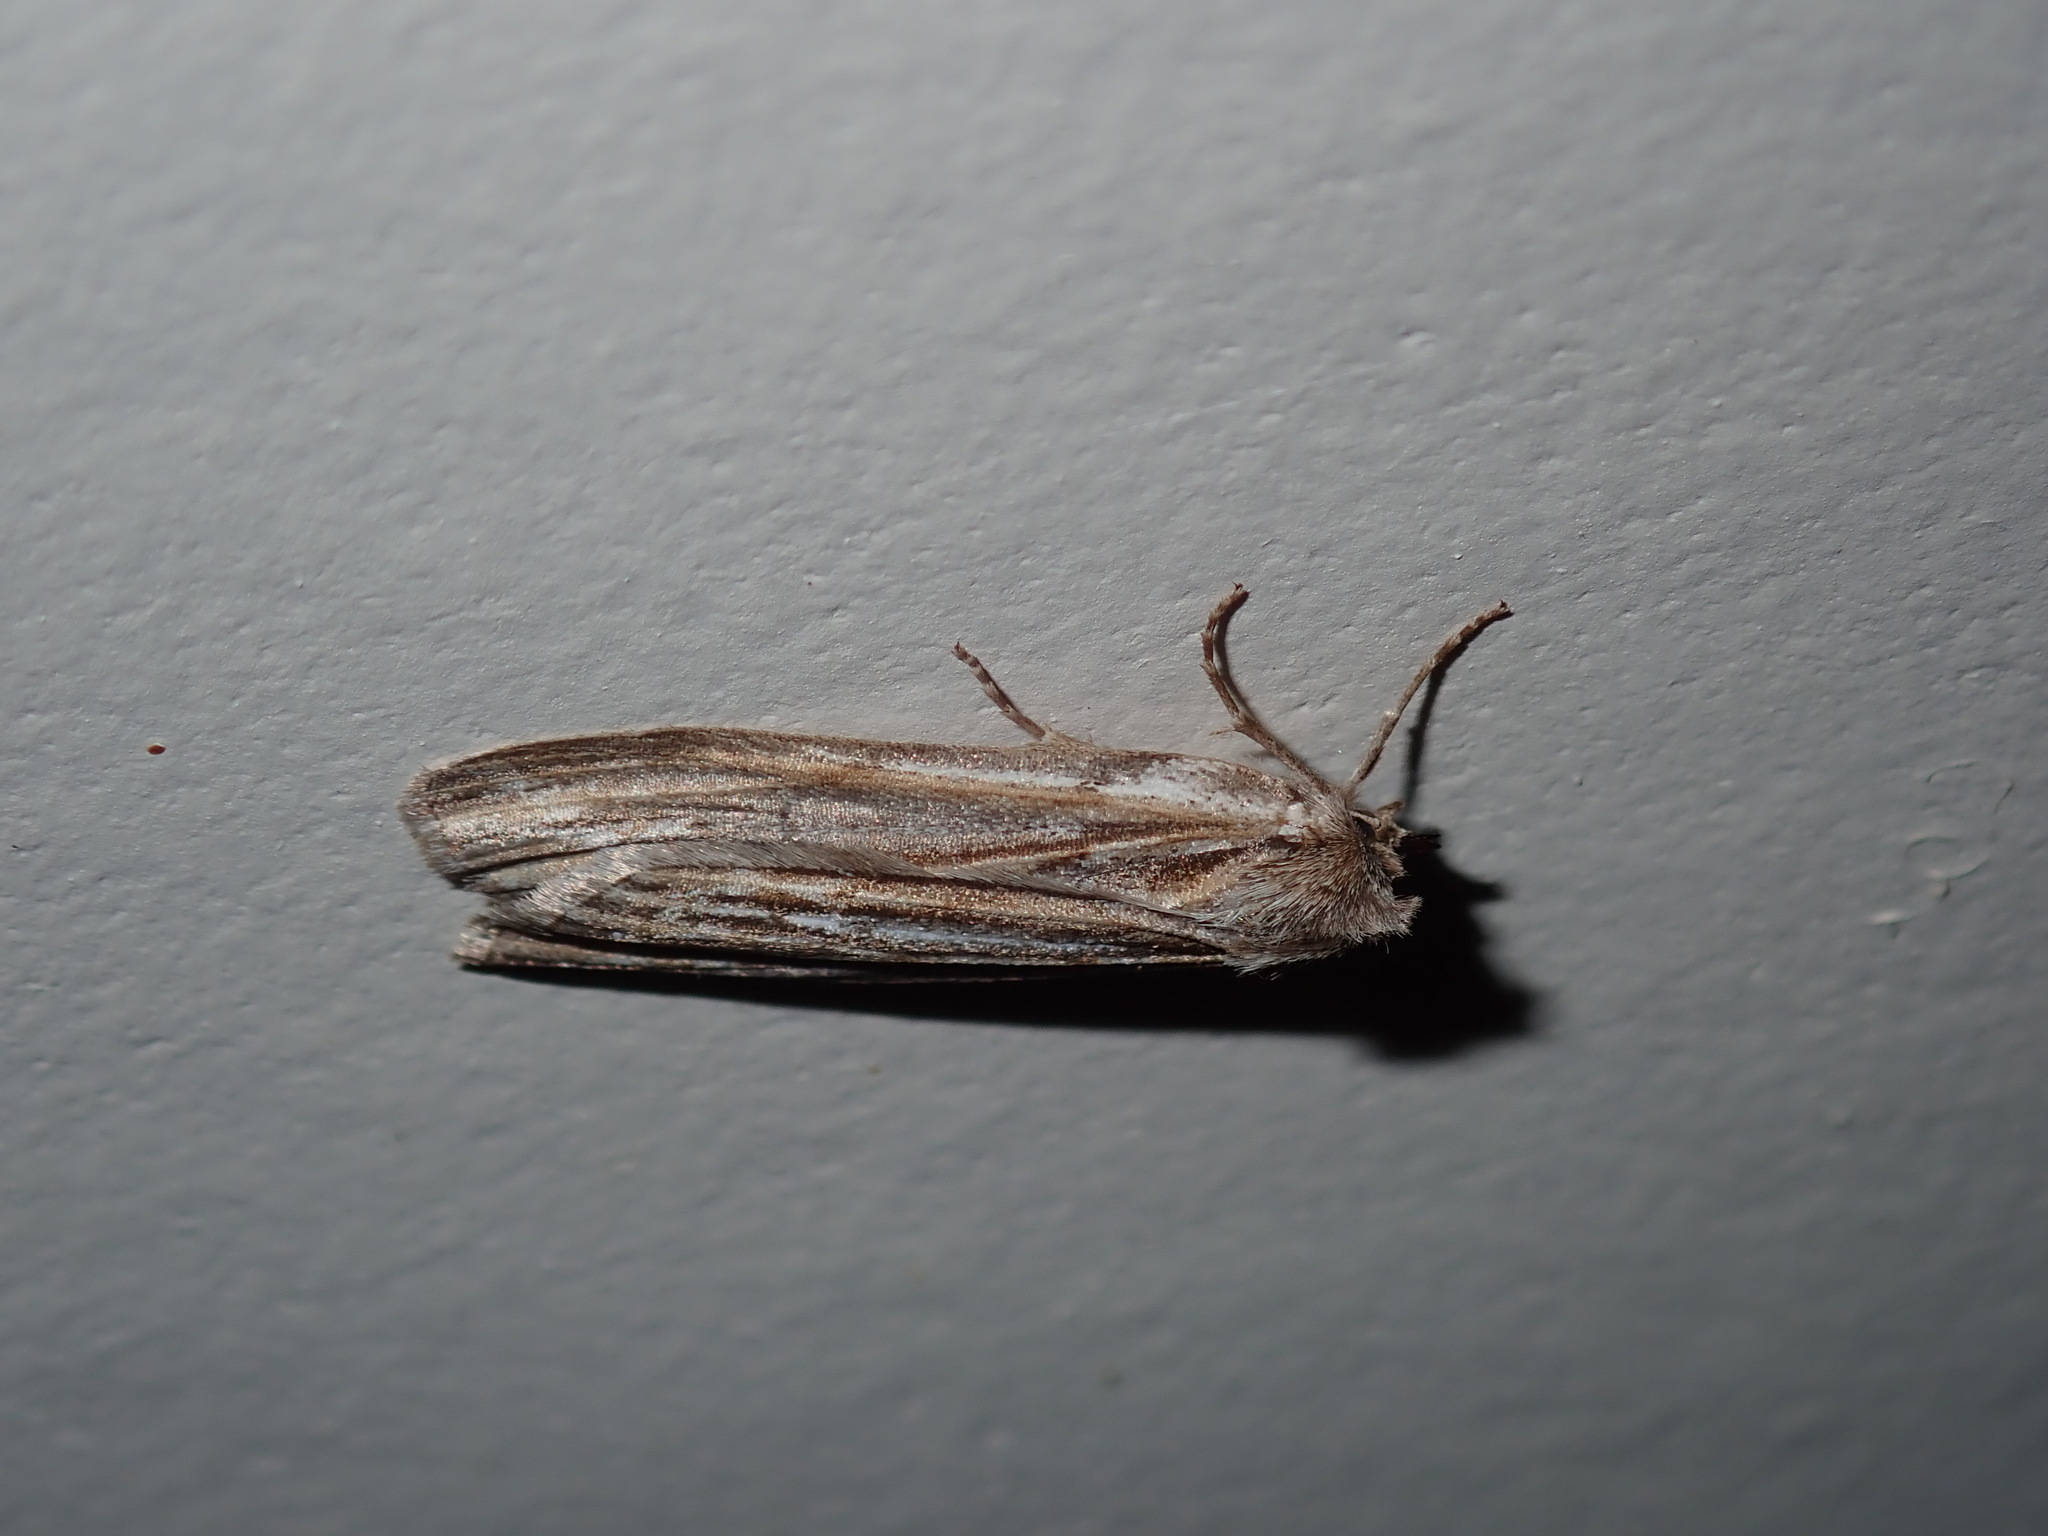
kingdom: Animalia
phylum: Arthropoda
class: Insecta
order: Lepidoptera
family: Geometridae
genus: Ciampa
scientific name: Ciampa arietaria
